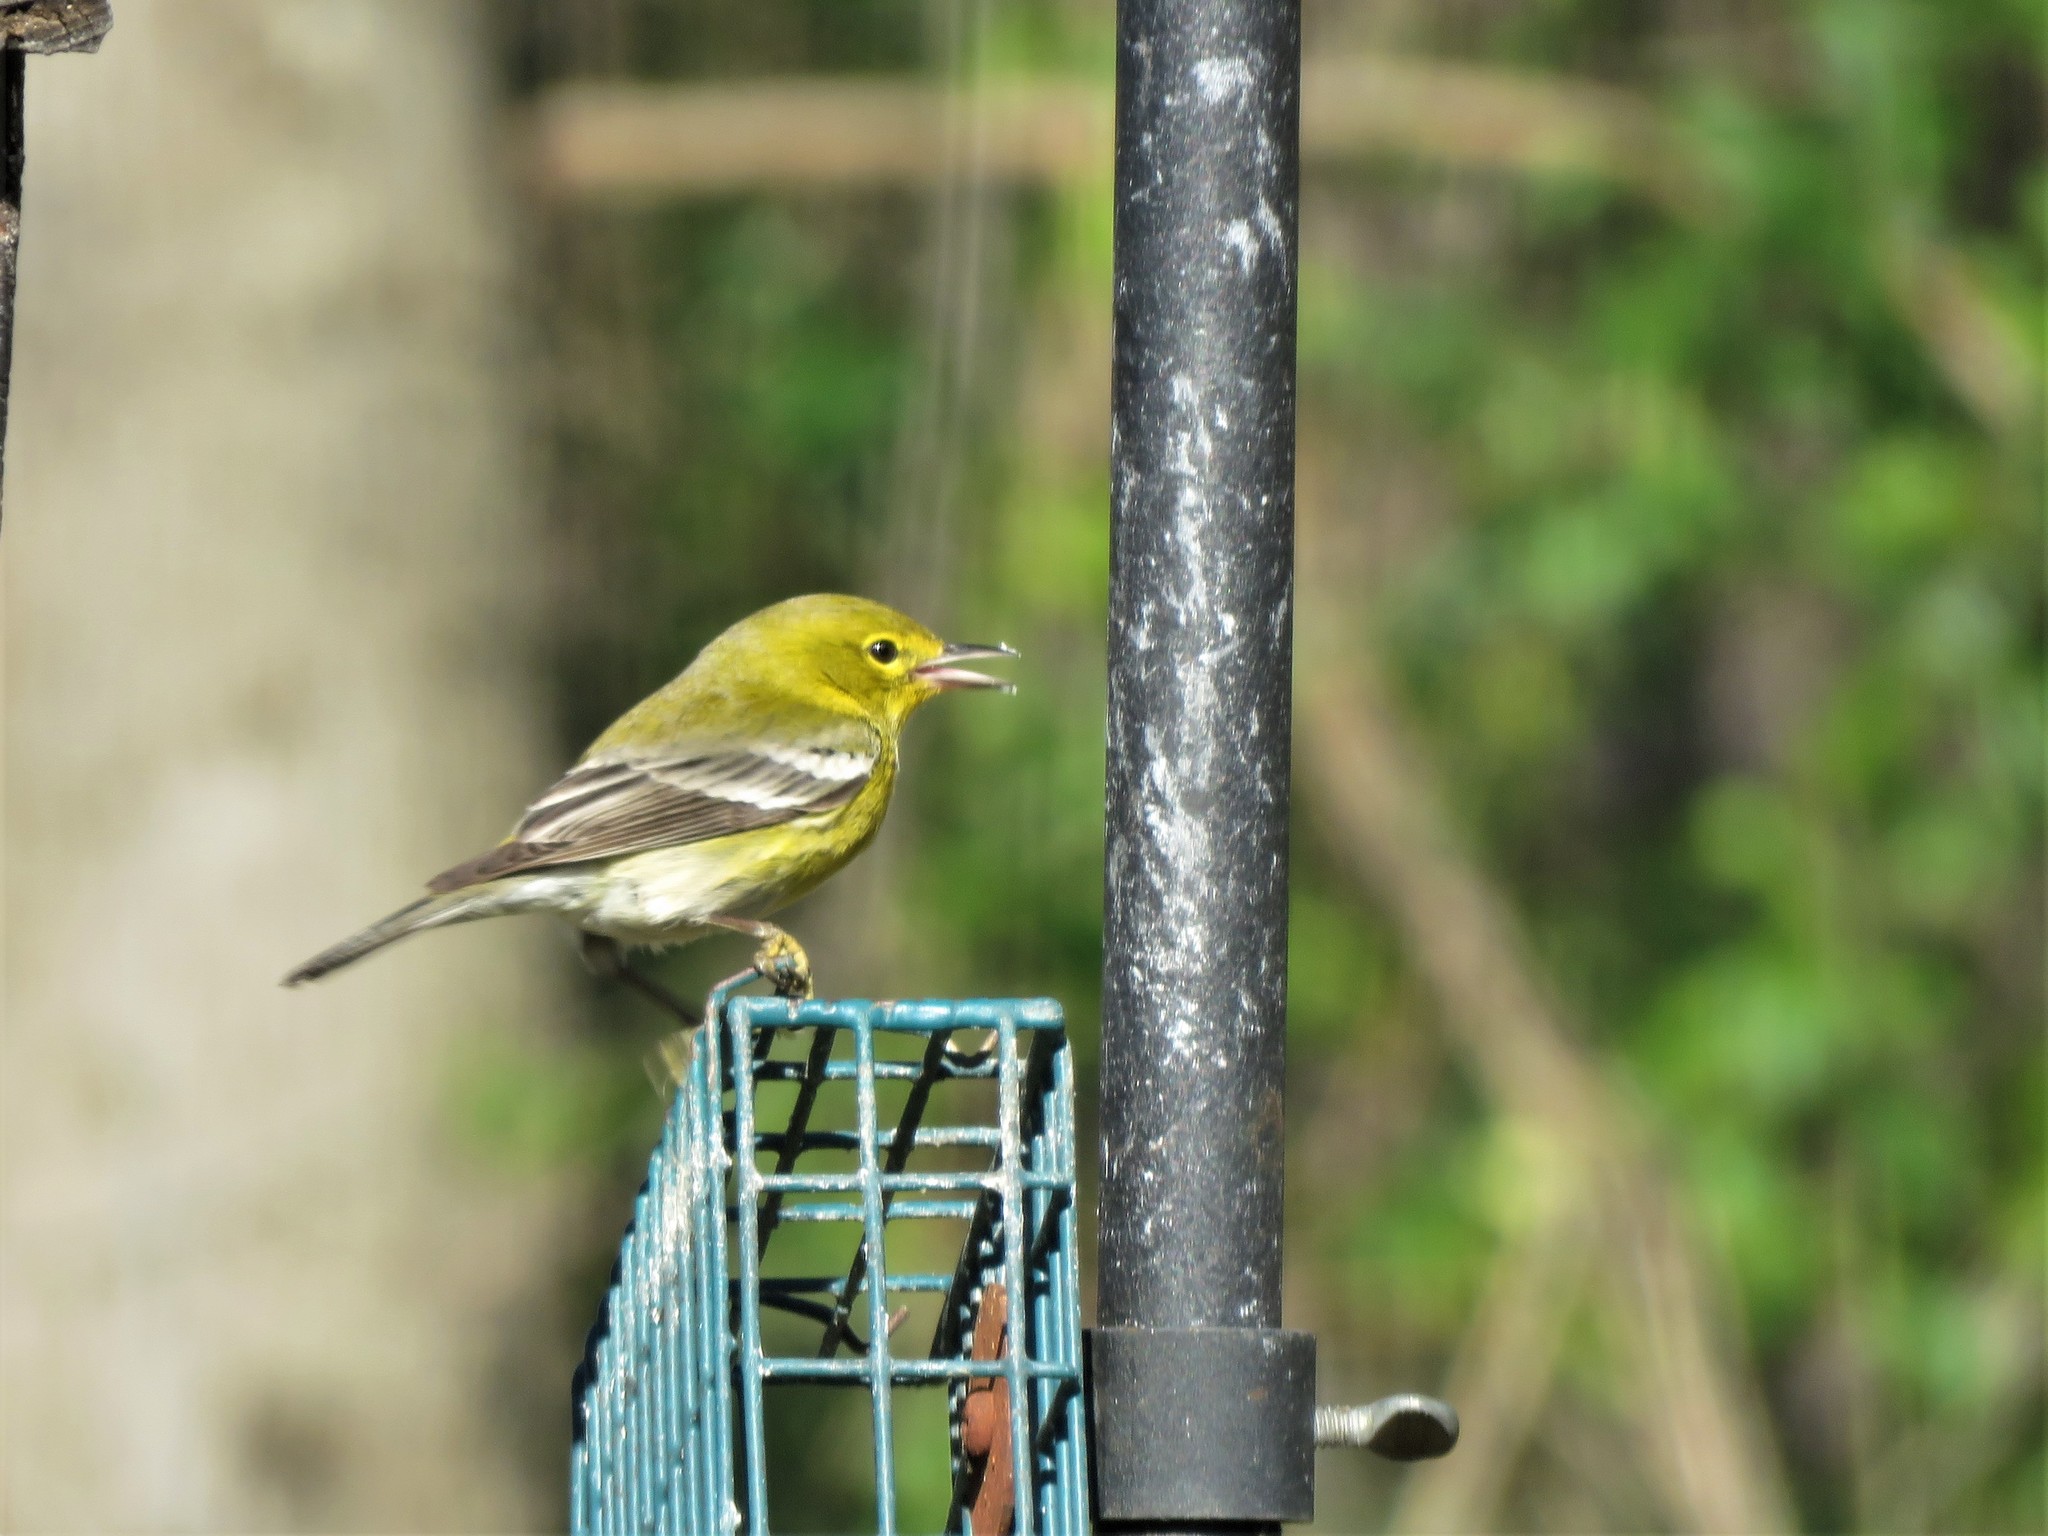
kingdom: Animalia
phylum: Chordata
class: Aves
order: Passeriformes
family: Parulidae
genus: Setophaga
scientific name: Setophaga pinus
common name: Pine warbler
